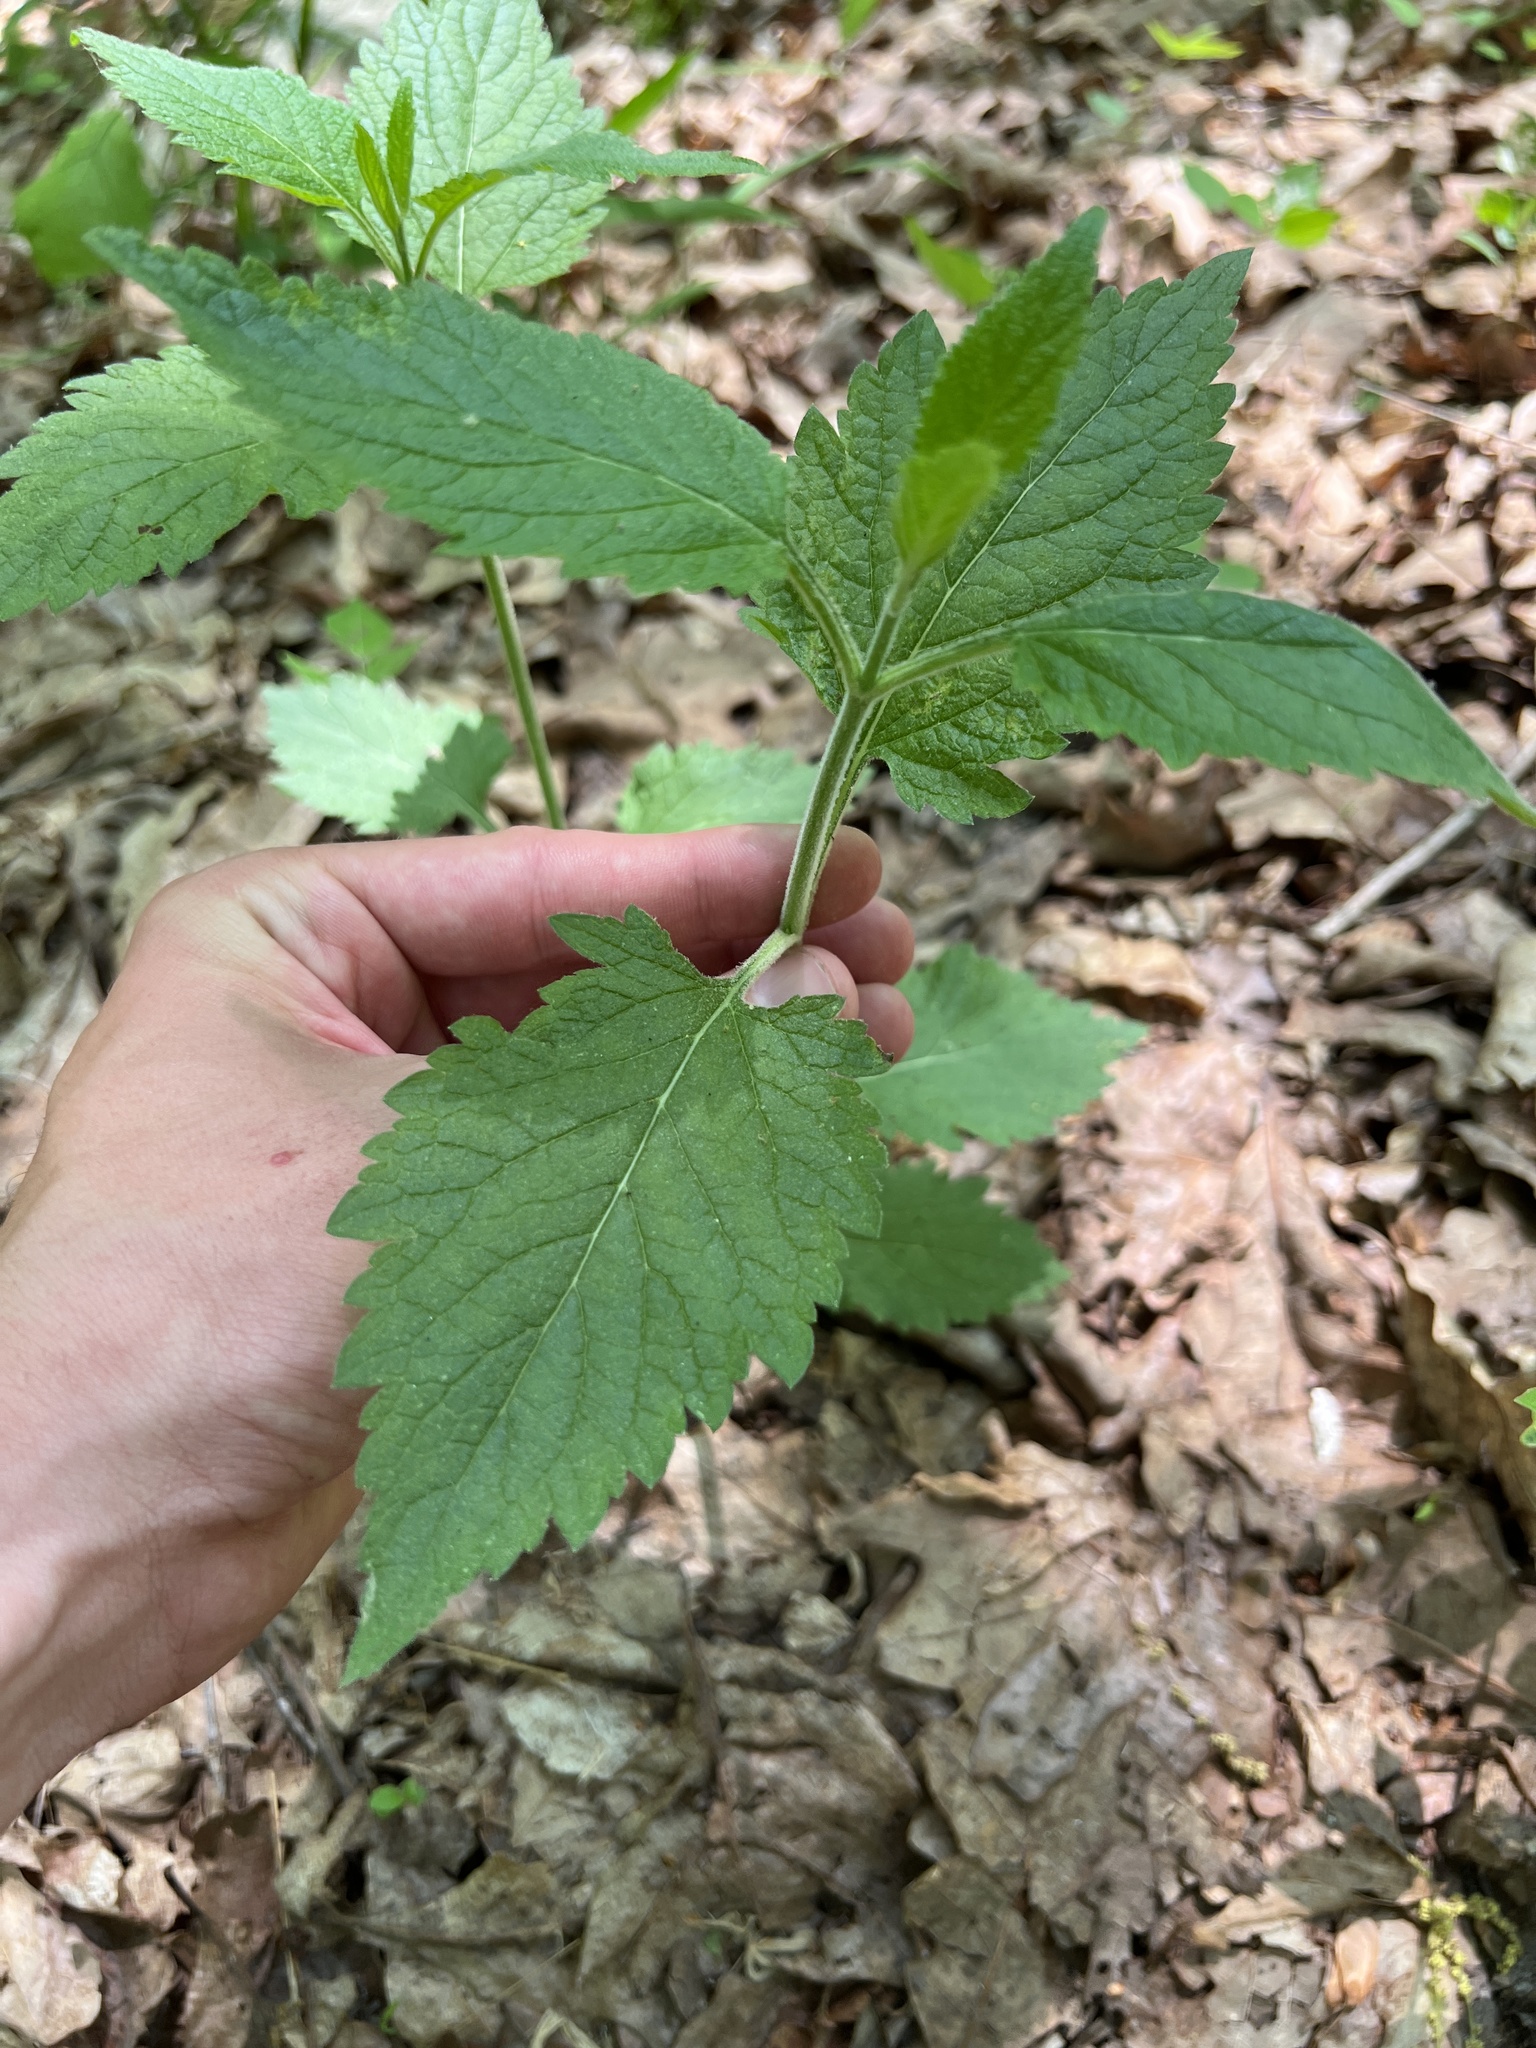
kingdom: Plantae
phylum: Tracheophyta
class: Magnoliopsida
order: Lamiales
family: Verbenaceae
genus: Verbena
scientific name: Verbena urticifolia
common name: Nettle-leaved vervain
